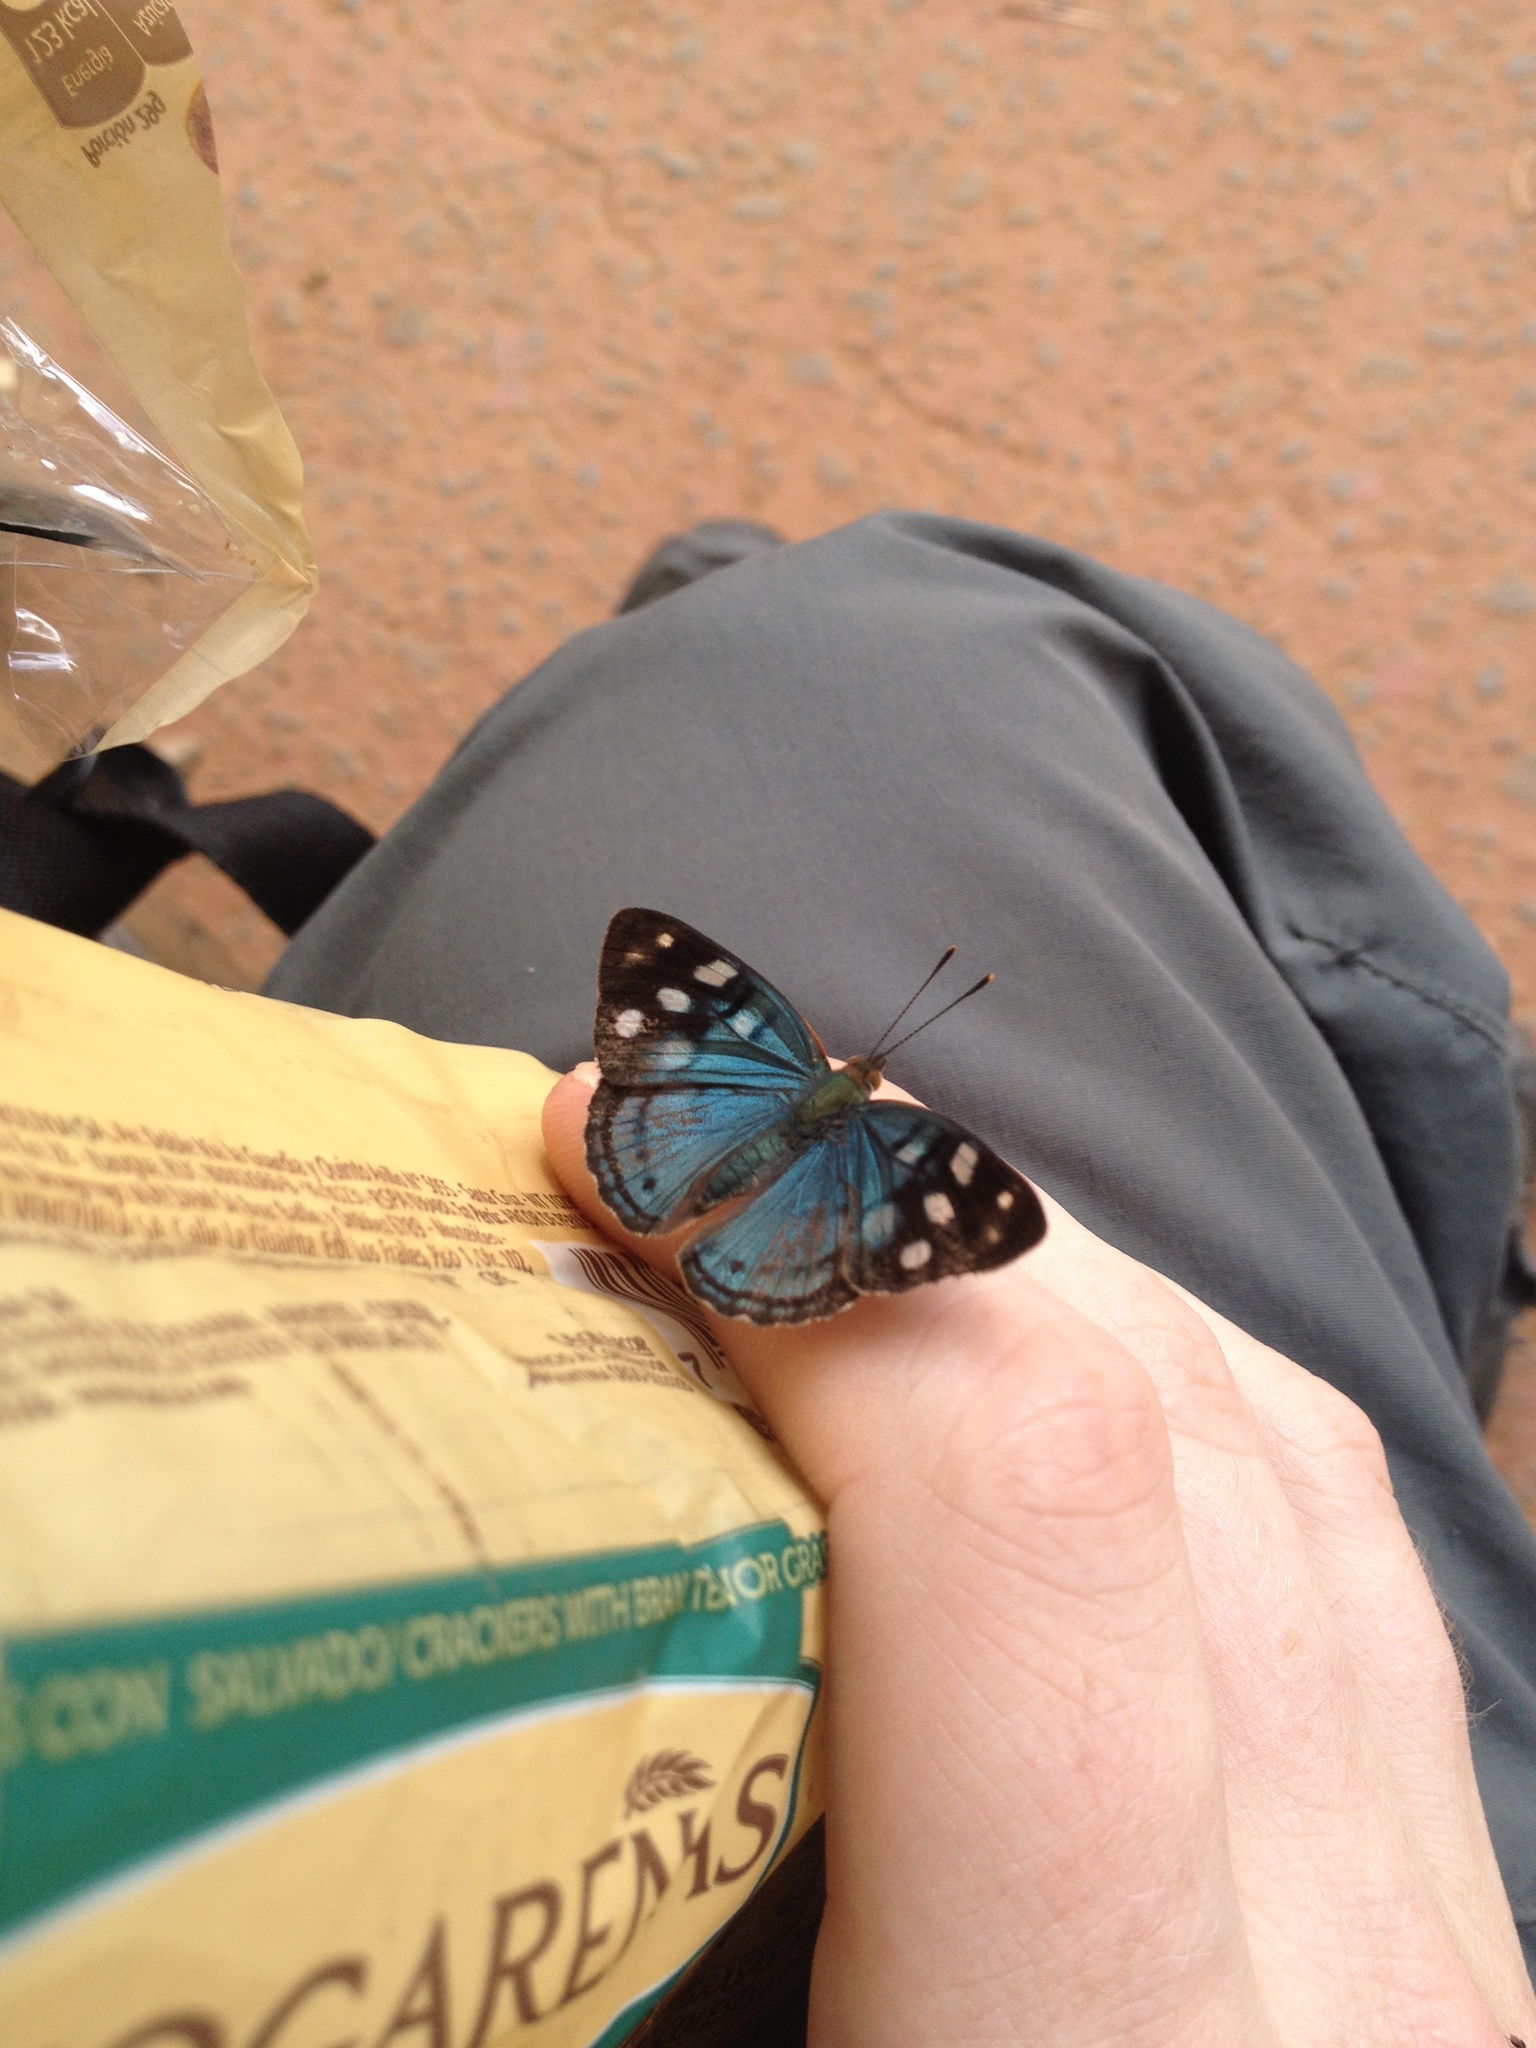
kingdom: Animalia
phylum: Arthropoda
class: Insecta
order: Lepidoptera
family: Nymphalidae
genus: Dynamine
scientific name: Dynamine tithia
